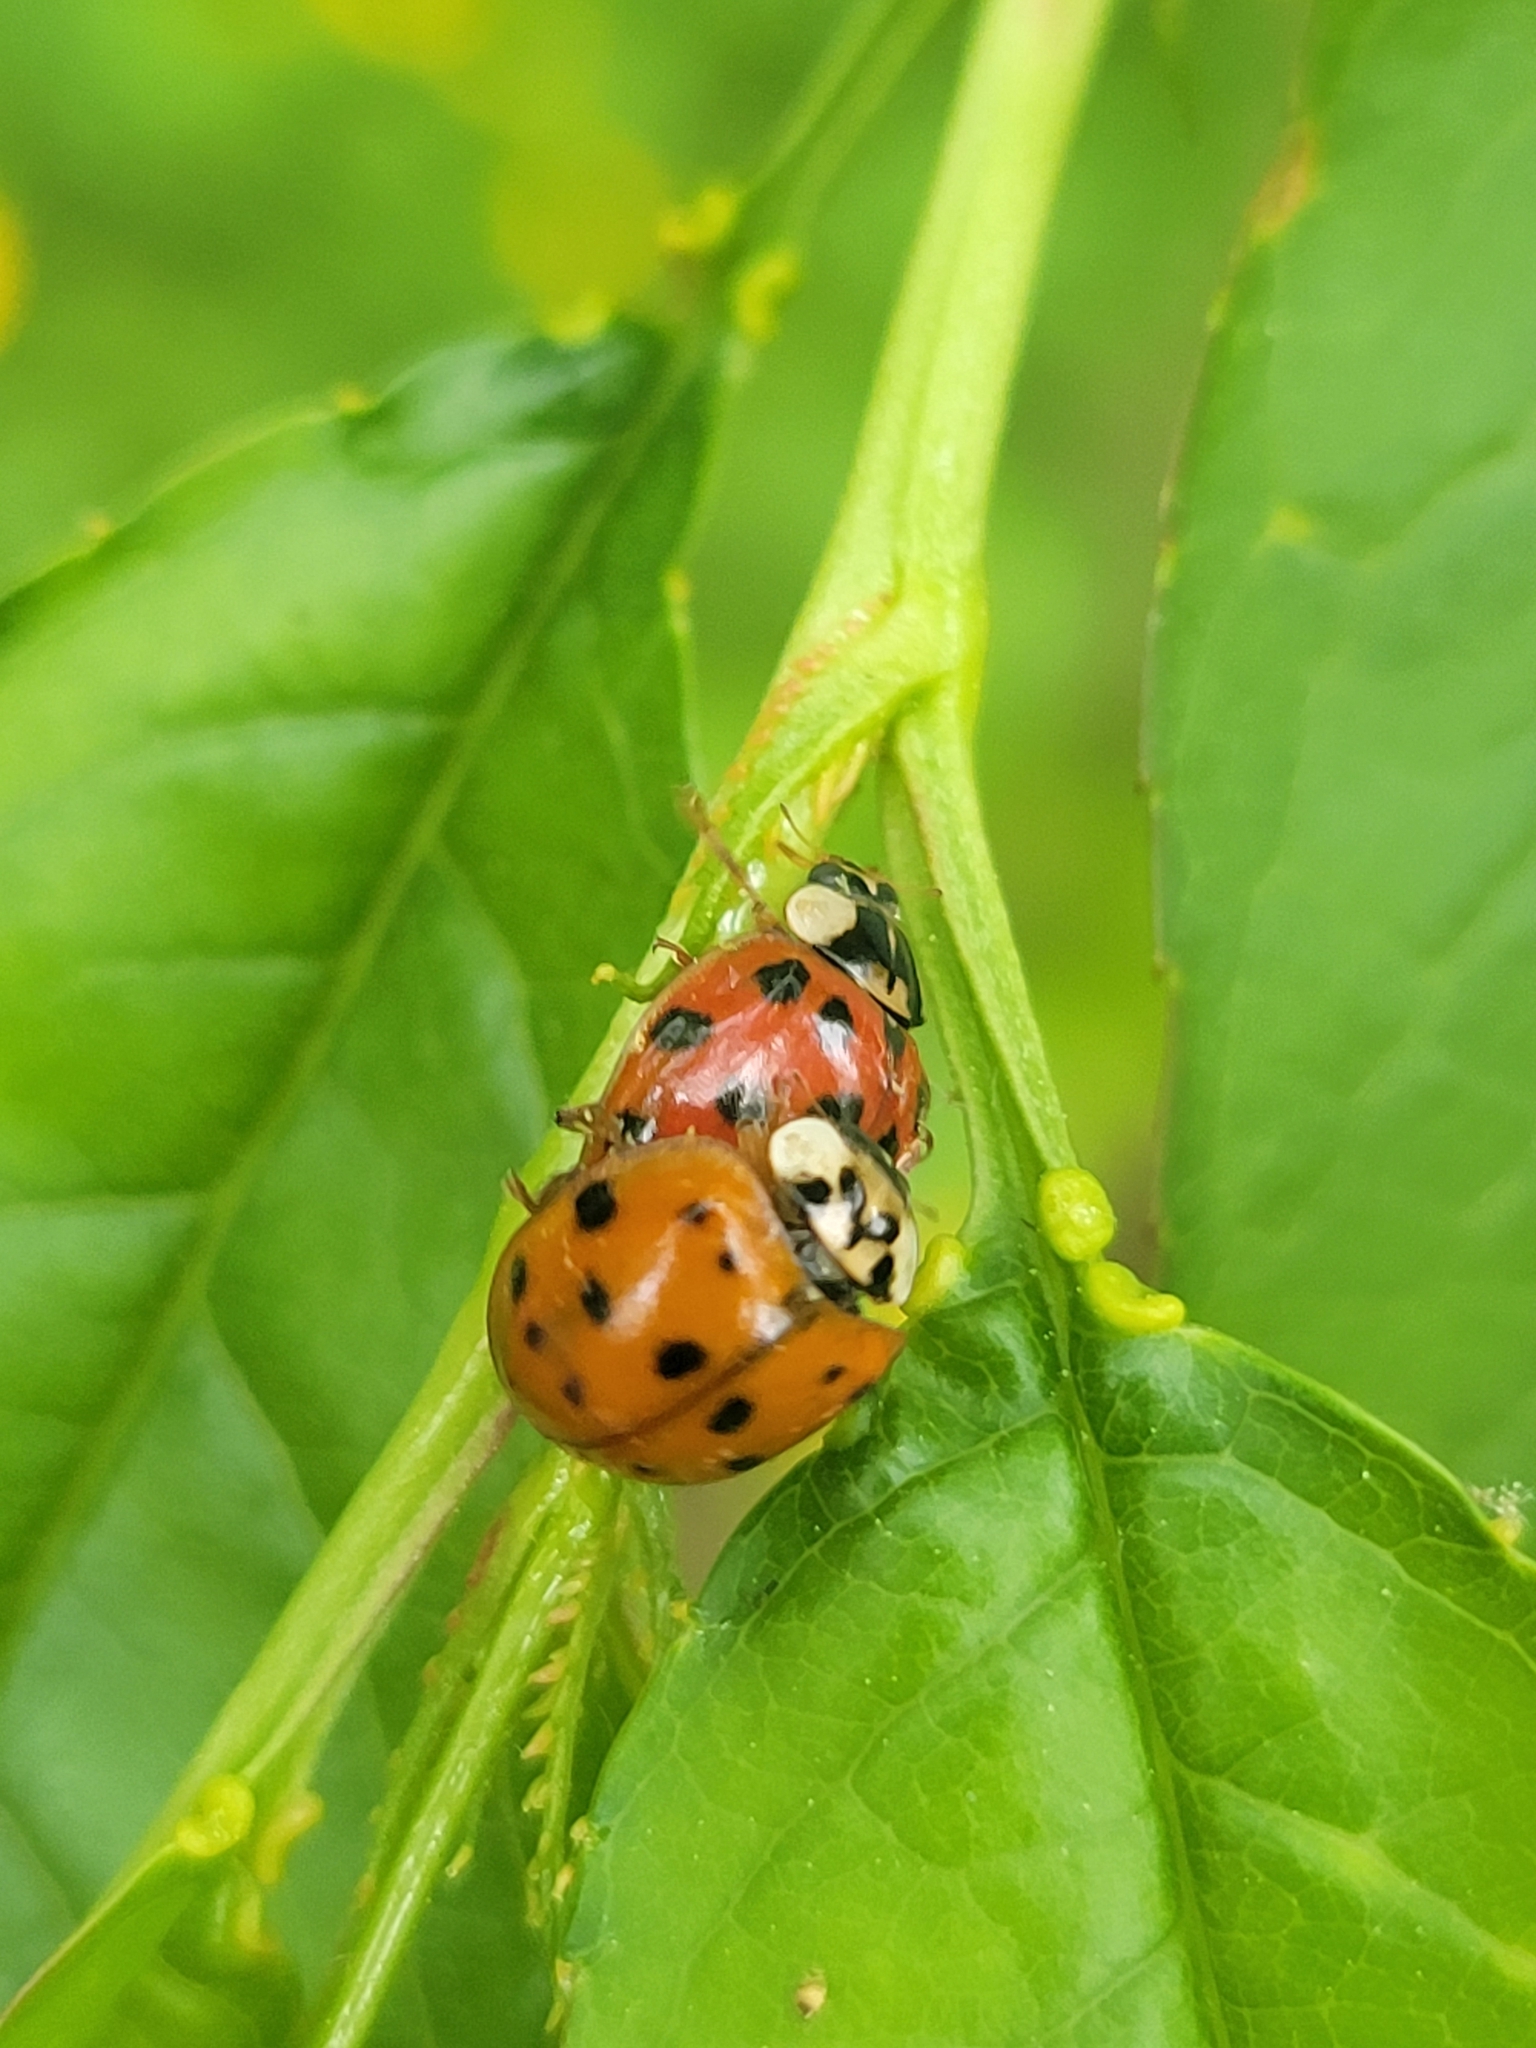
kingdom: Animalia
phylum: Arthropoda
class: Insecta
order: Coleoptera
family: Coccinellidae
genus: Harmonia
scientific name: Harmonia axyridis
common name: Harlequin ladybird
